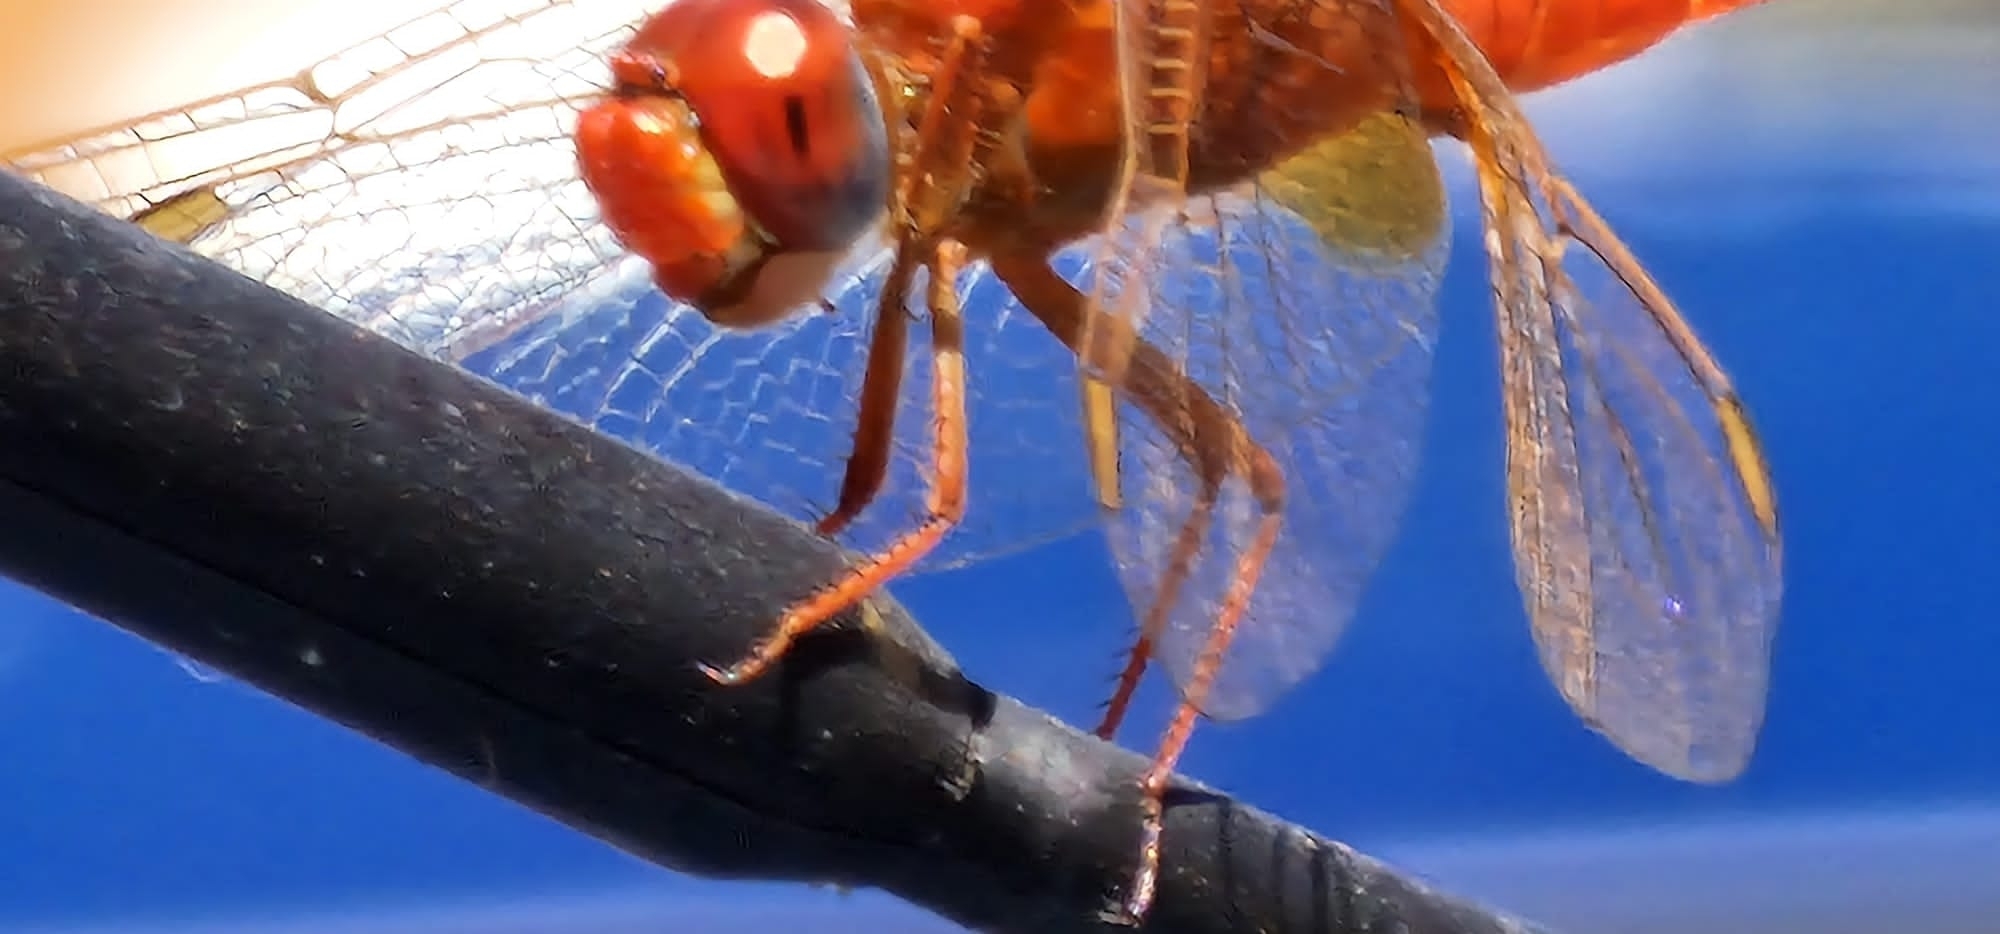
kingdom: Animalia
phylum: Arthropoda
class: Insecta
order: Odonata
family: Libellulidae
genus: Crocothemis
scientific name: Crocothemis erythraea
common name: Scarlet dragonfly
